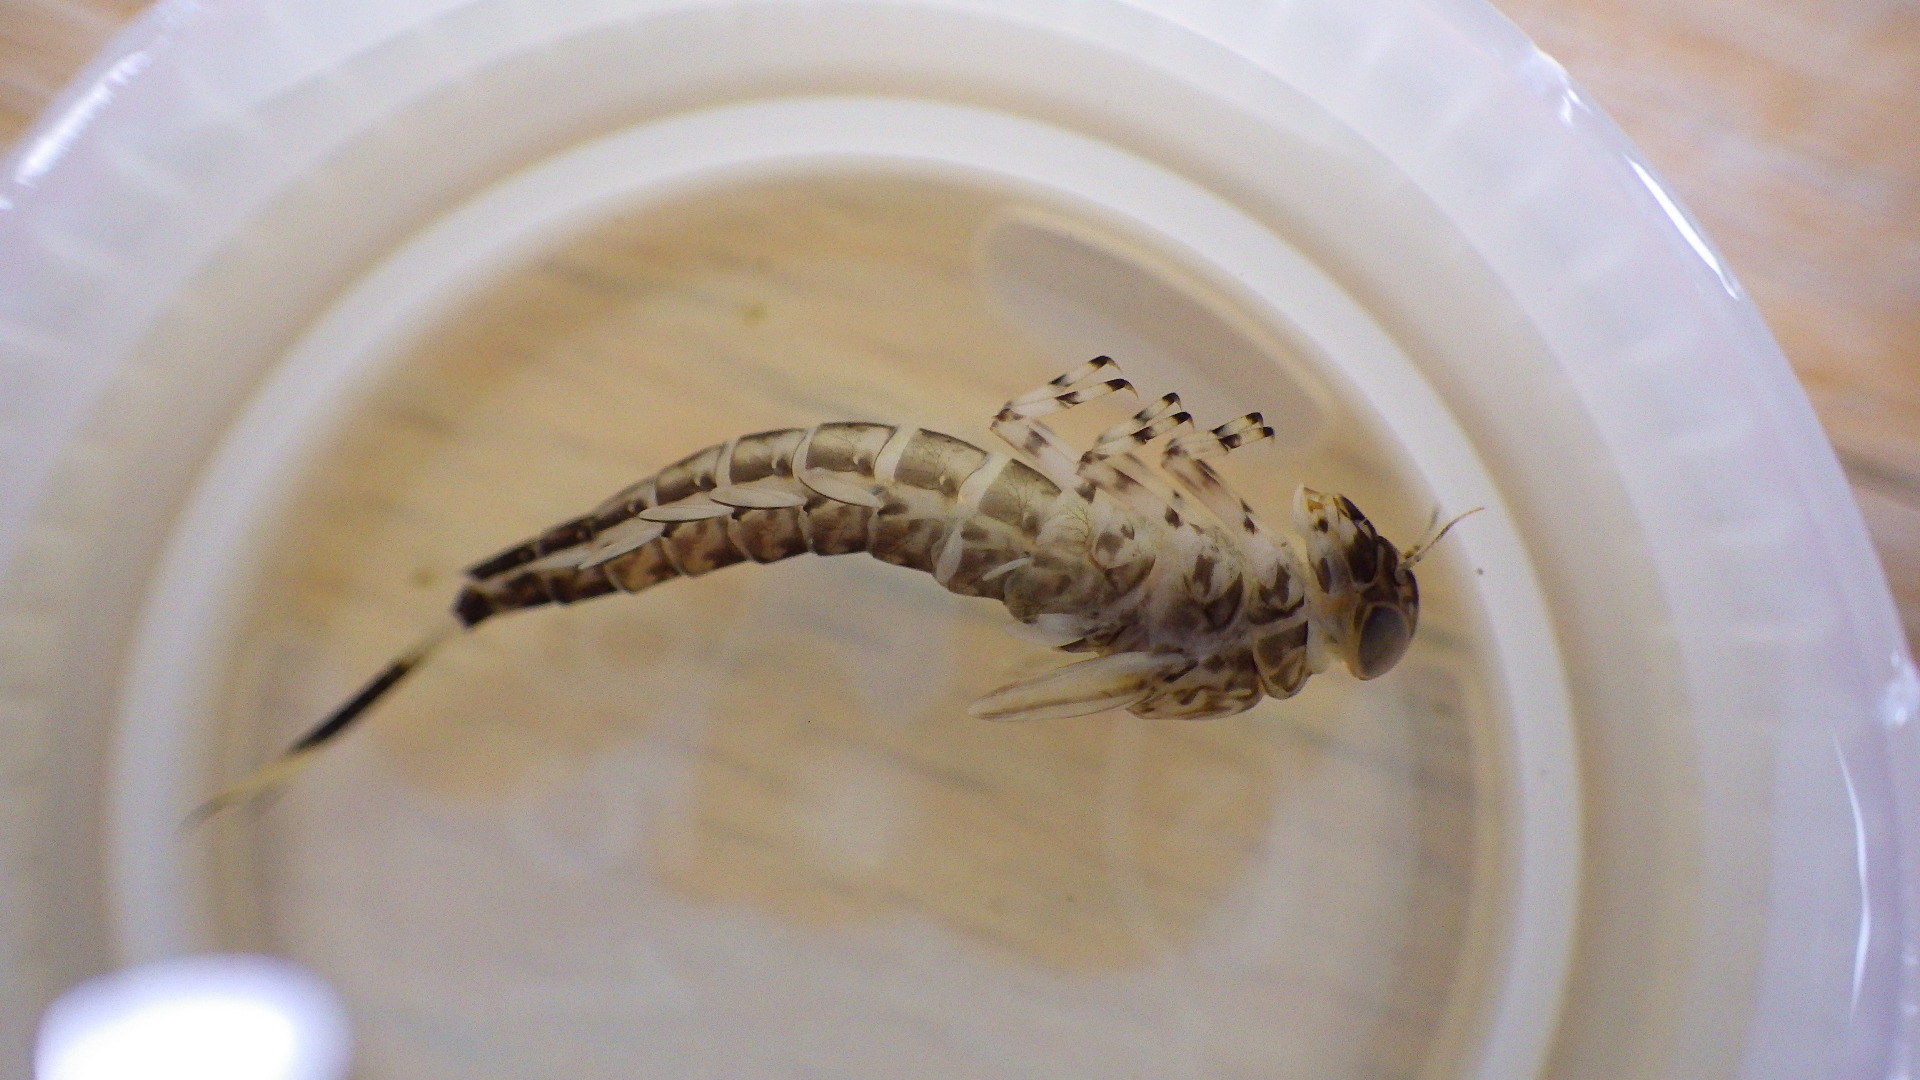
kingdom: Animalia
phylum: Arthropoda
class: Insecta
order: Ephemeroptera
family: Ameletidae
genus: Ameletus
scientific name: Ameletus lineatus
